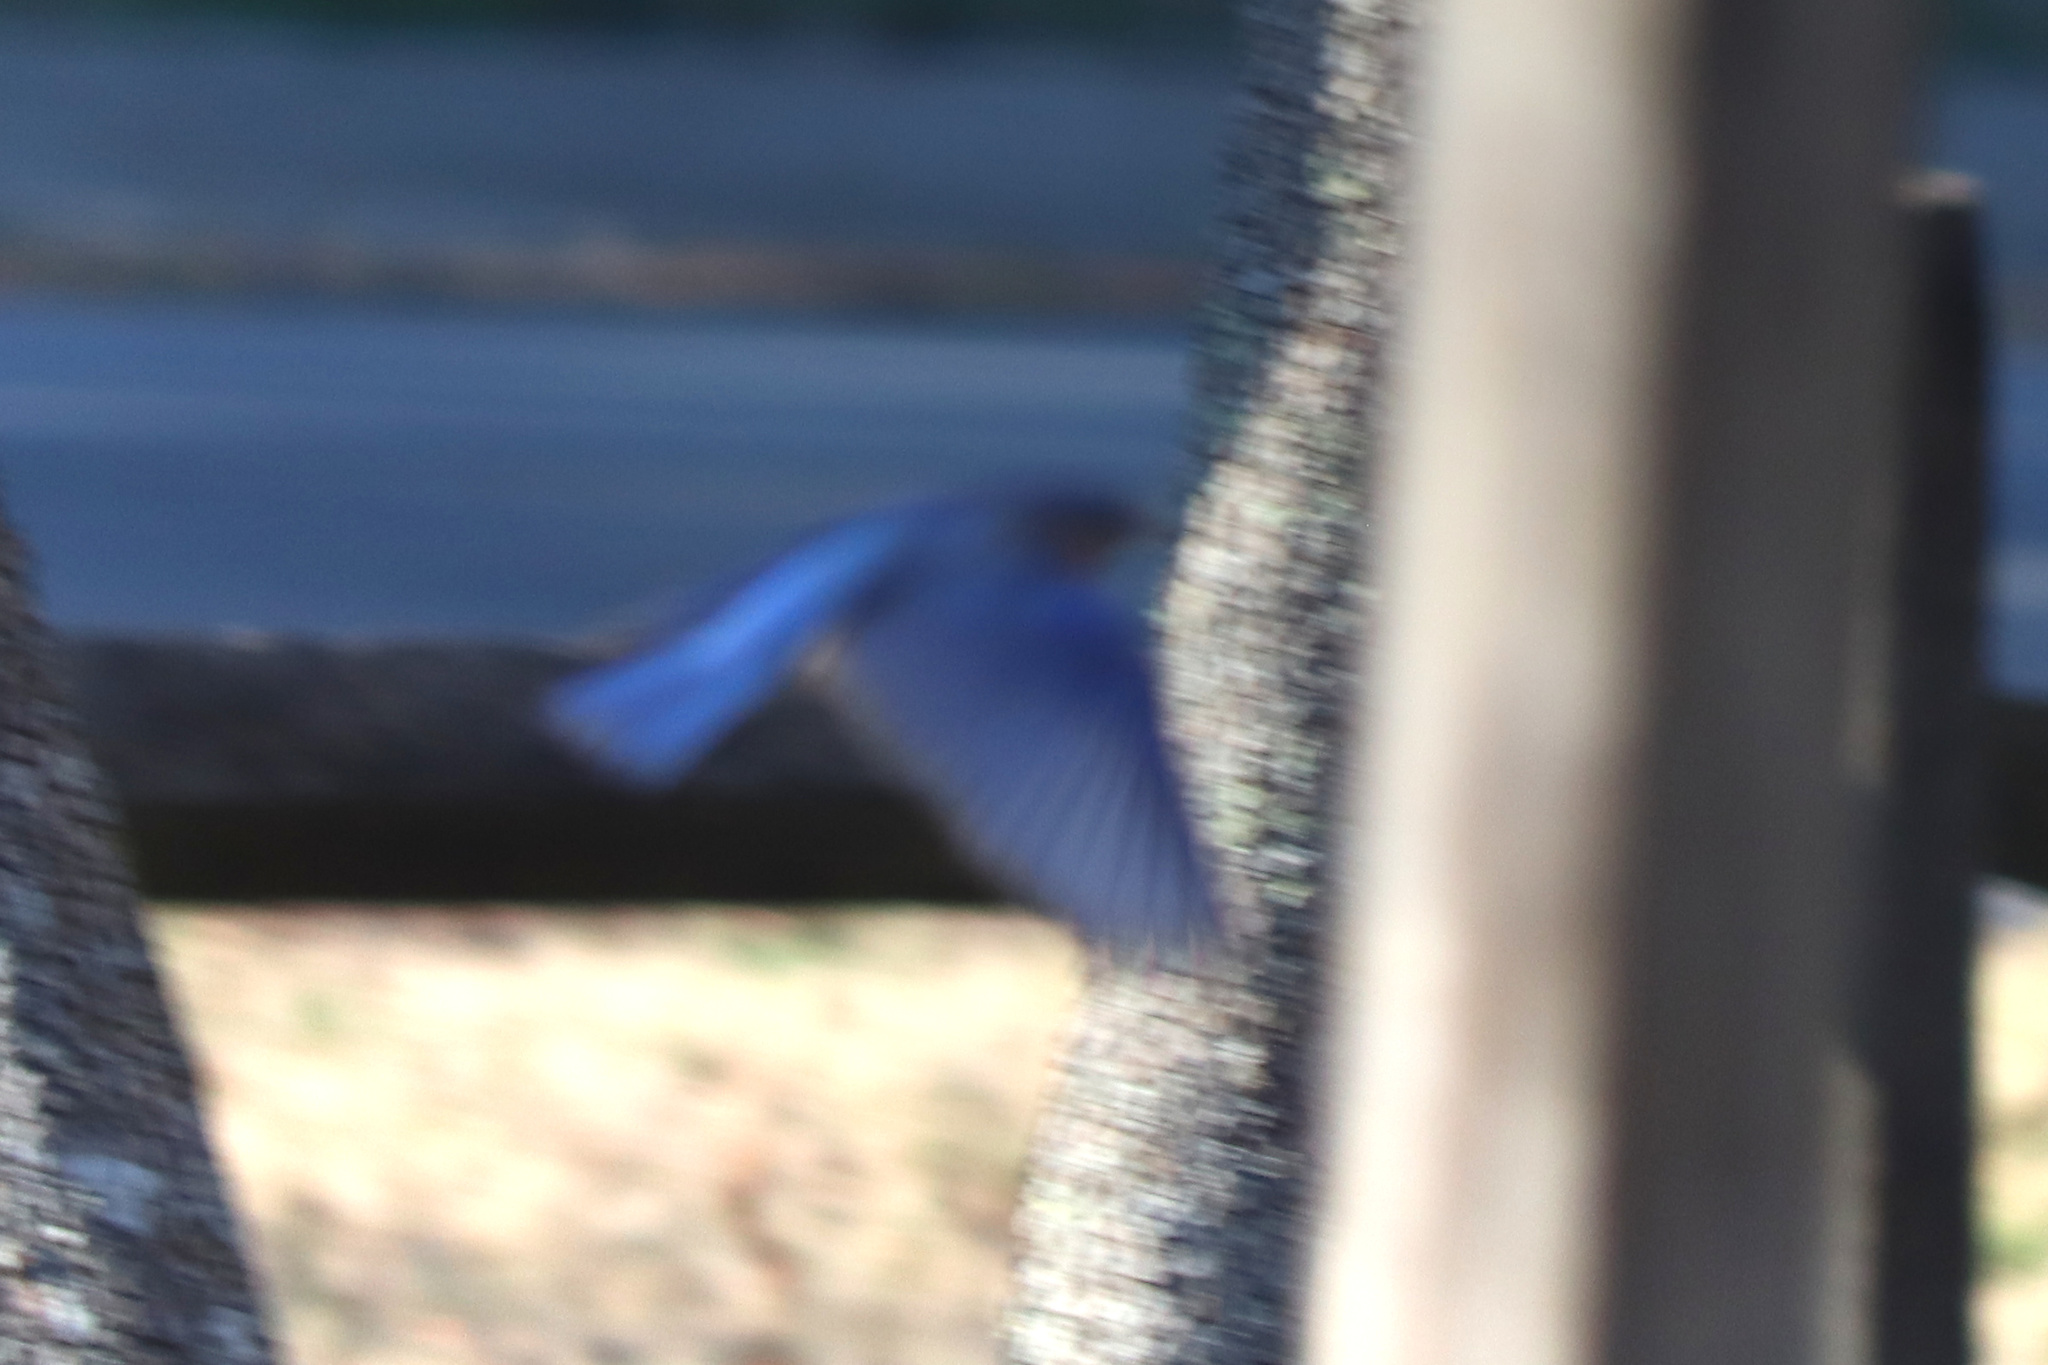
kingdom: Animalia
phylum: Chordata
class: Aves
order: Passeriformes
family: Turdidae
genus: Sialia
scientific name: Sialia sialis
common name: Eastern bluebird
